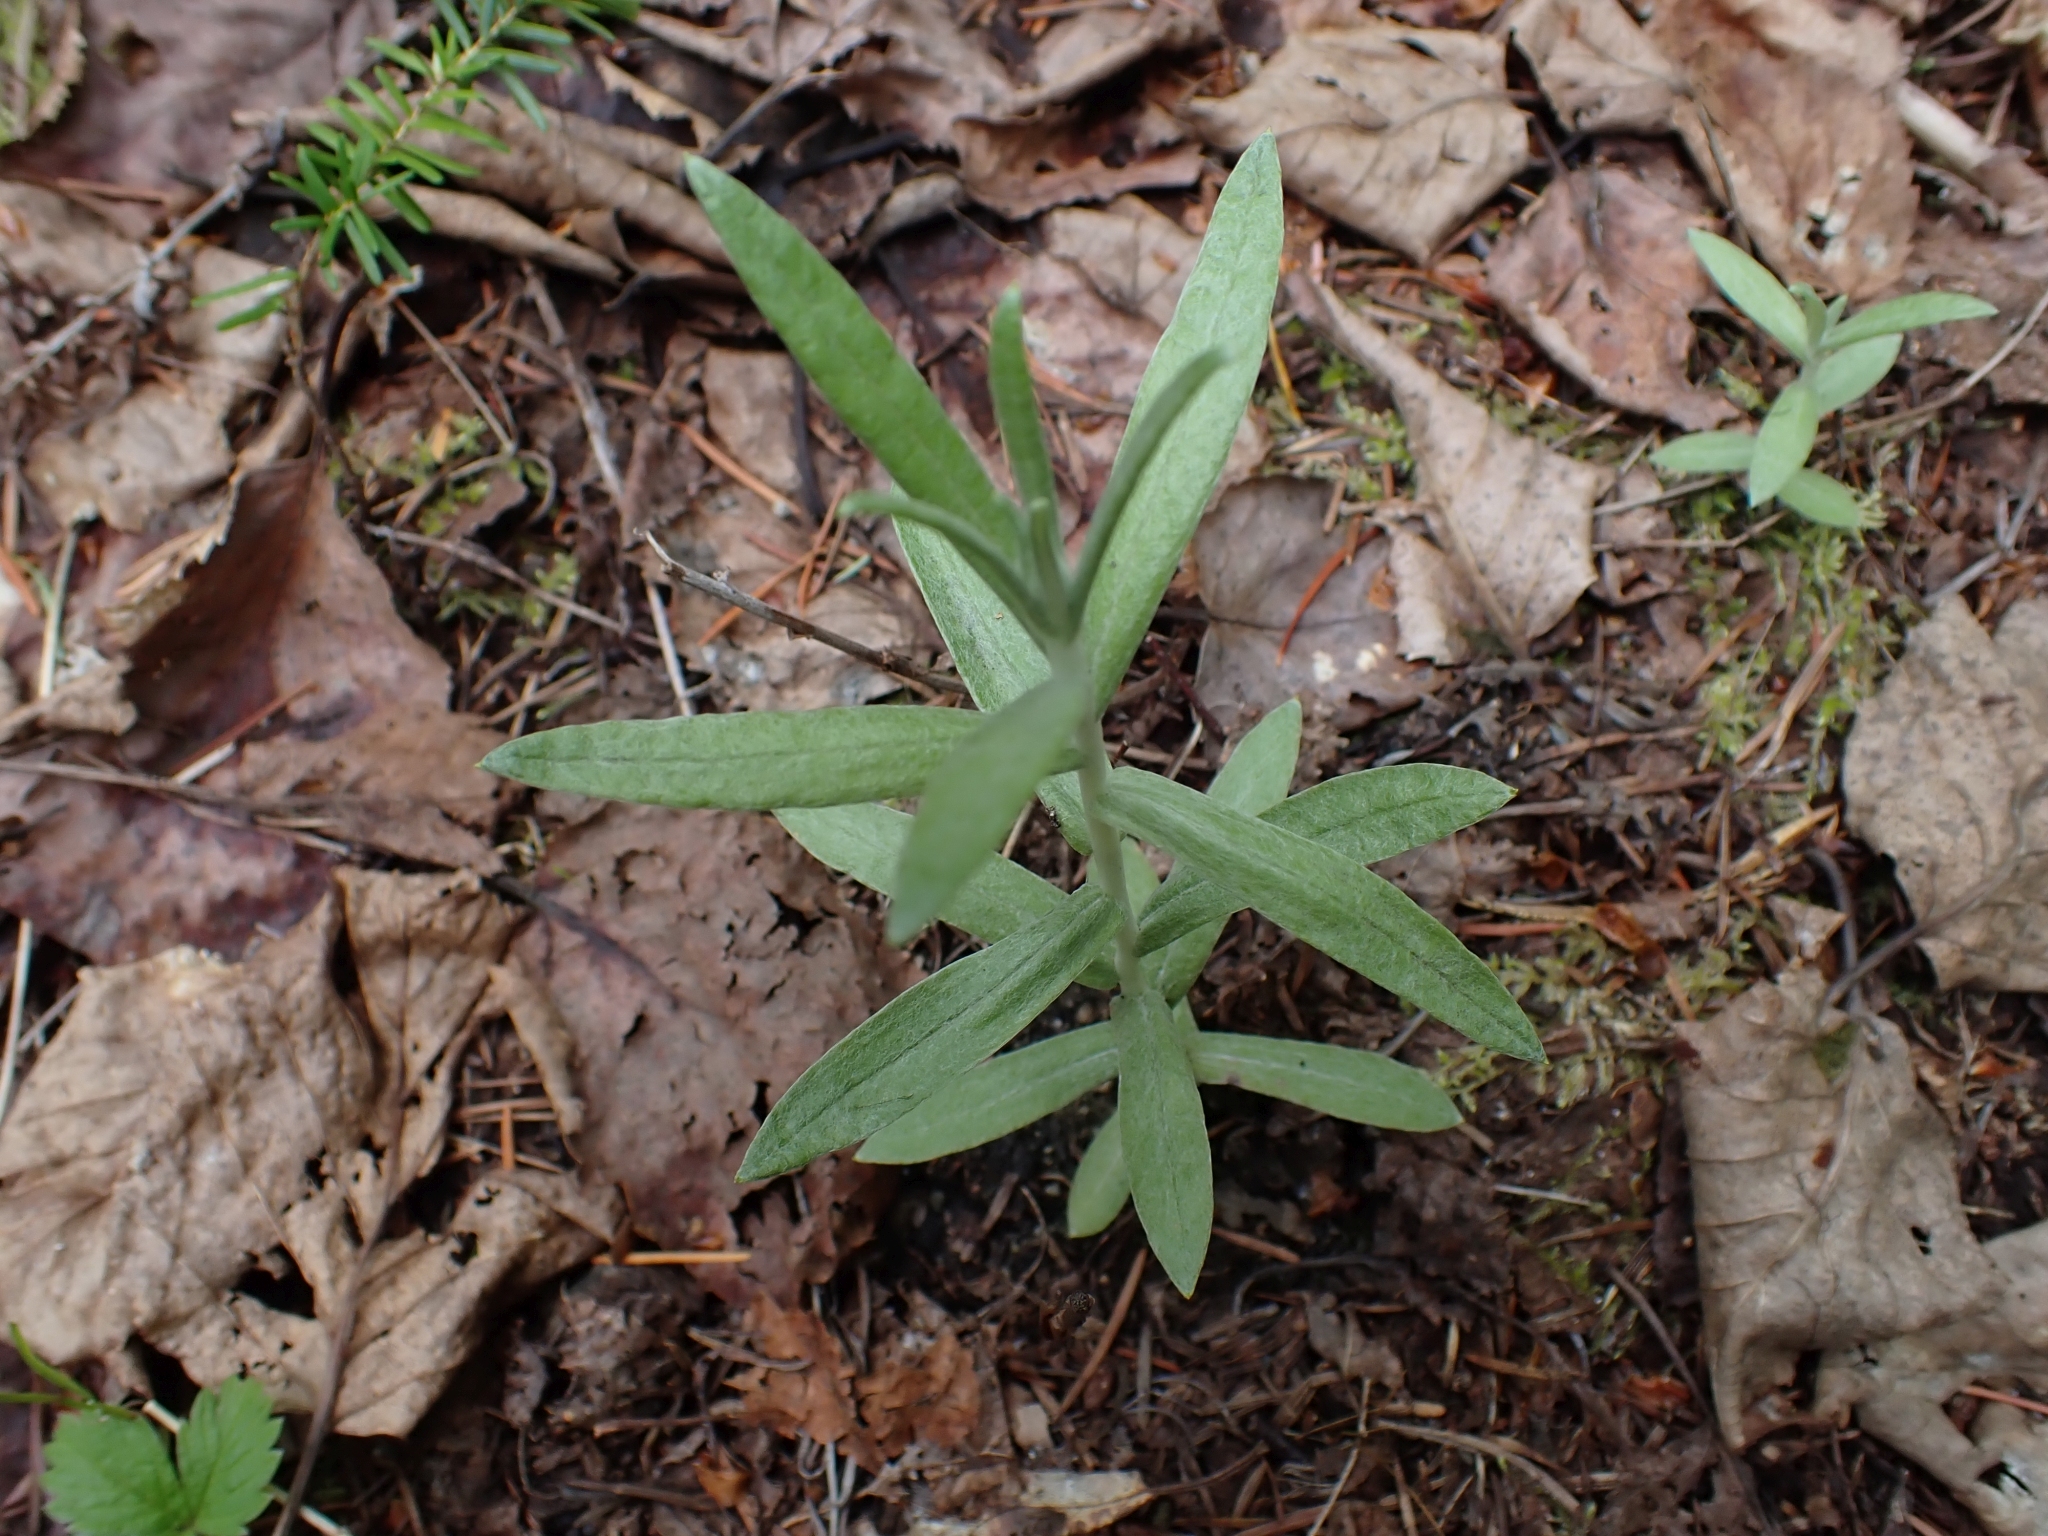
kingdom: Plantae
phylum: Tracheophyta
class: Magnoliopsida
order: Asterales
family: Asteraceae
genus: Anaphalis
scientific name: Anaphalis margaritacea
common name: Pearly everlasting
